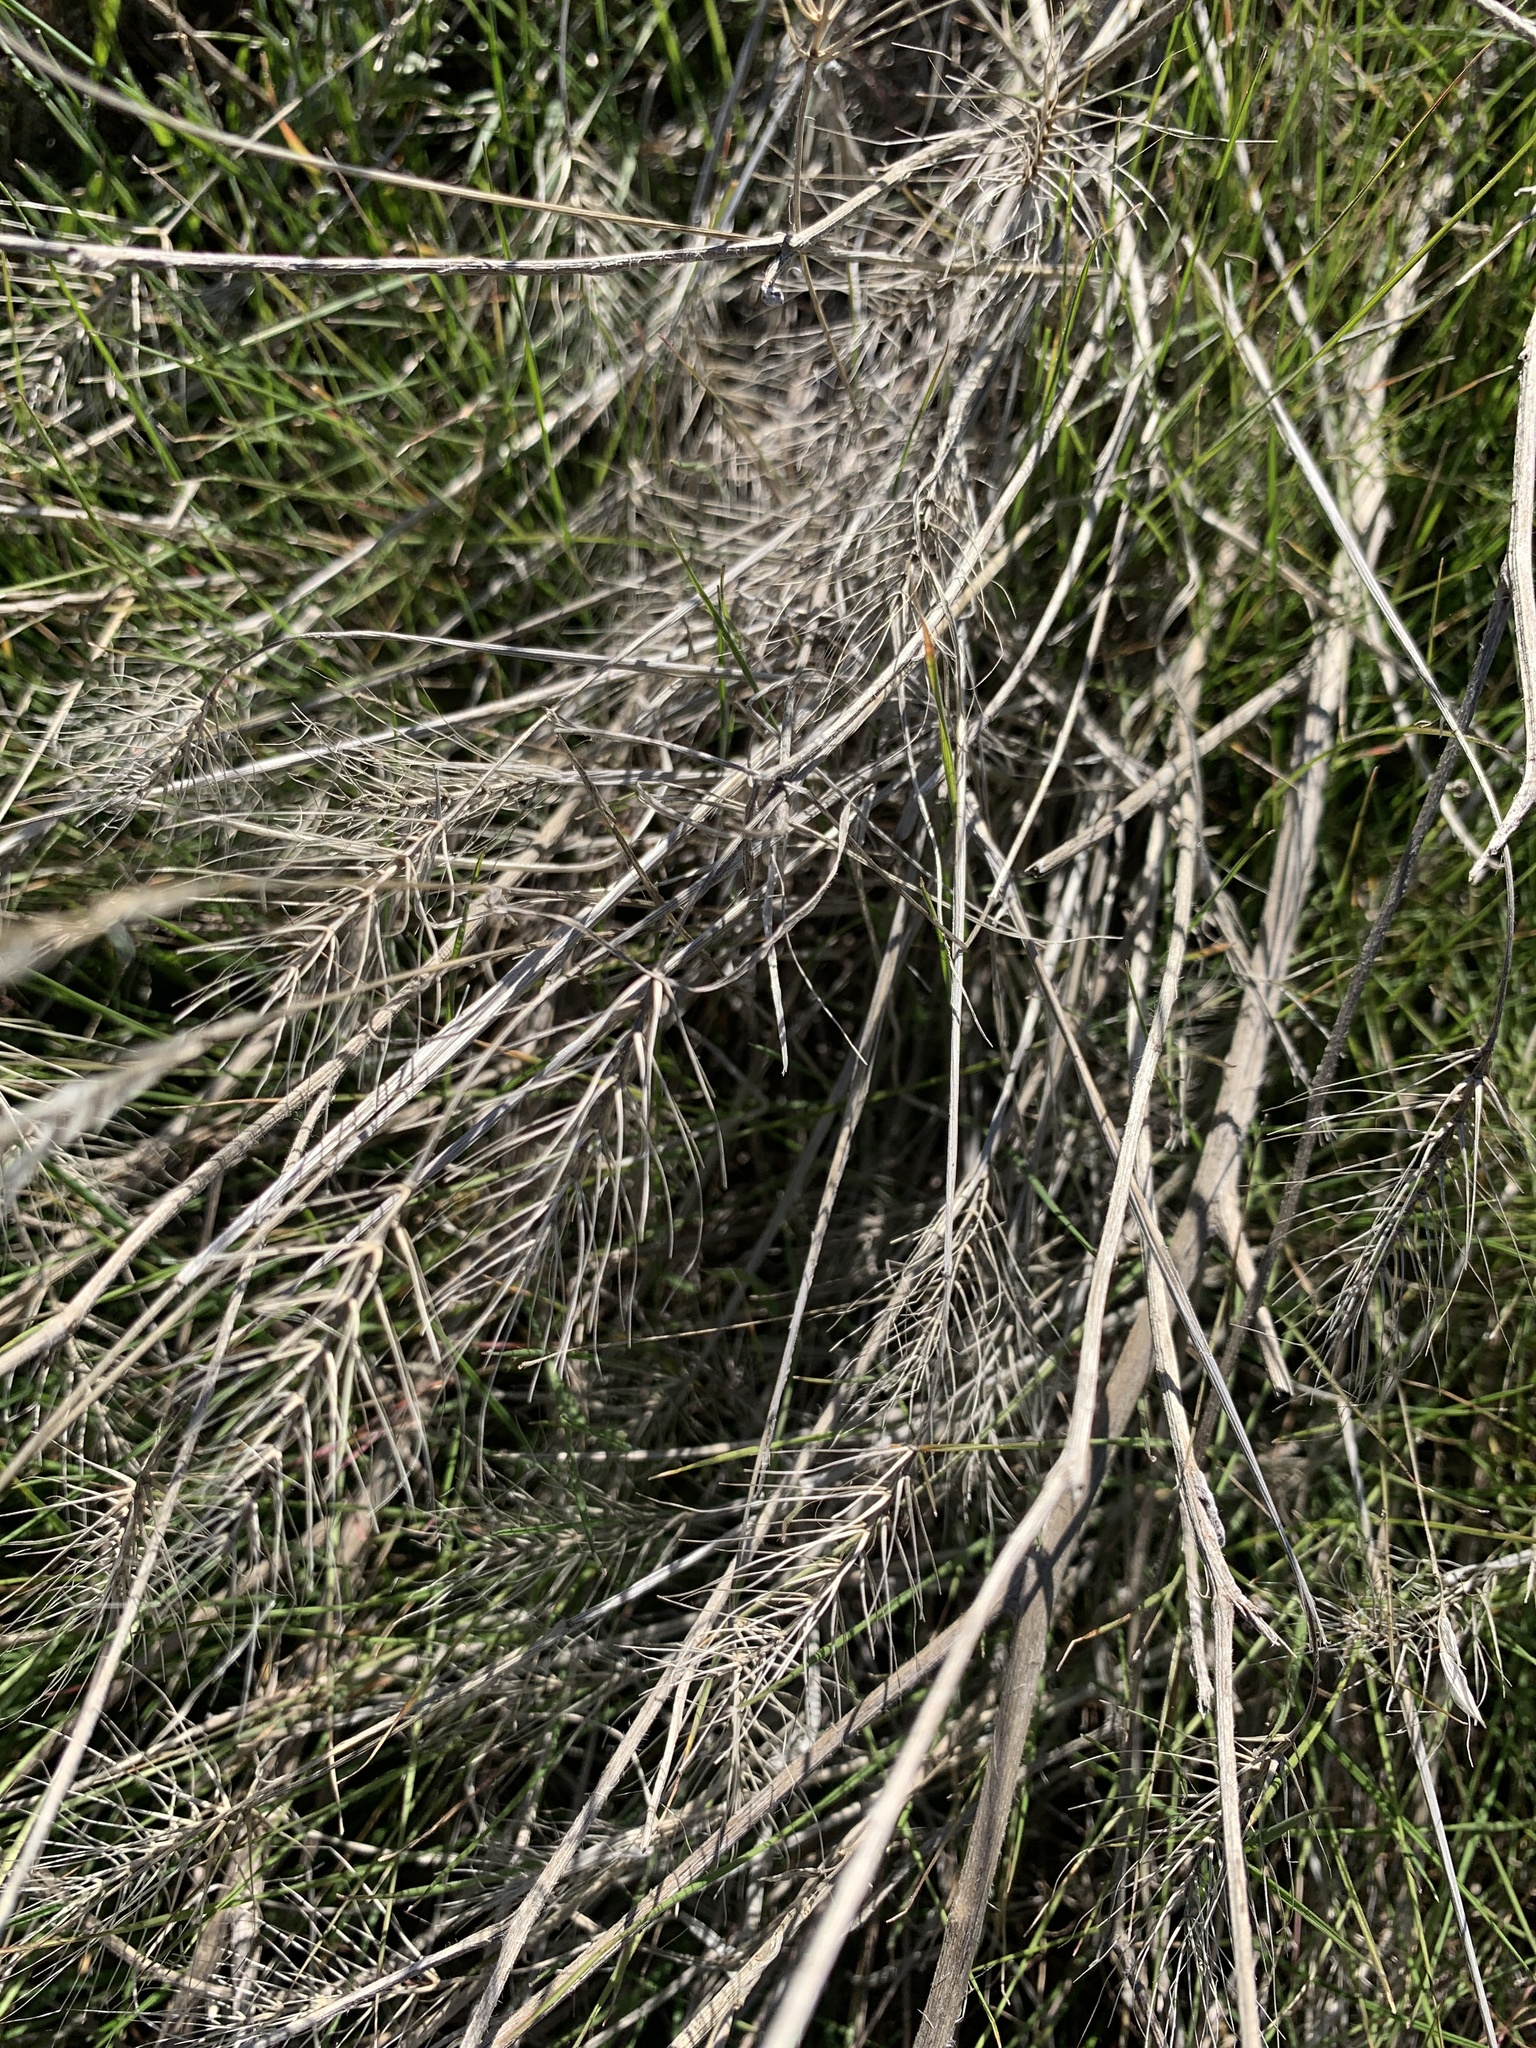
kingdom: Plantae
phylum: Tracheophyta
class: Liliopsida
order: Poales
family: Poaceae
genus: Taeniatherum
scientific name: Taeniatherum caput-medusae
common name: Medusahead
